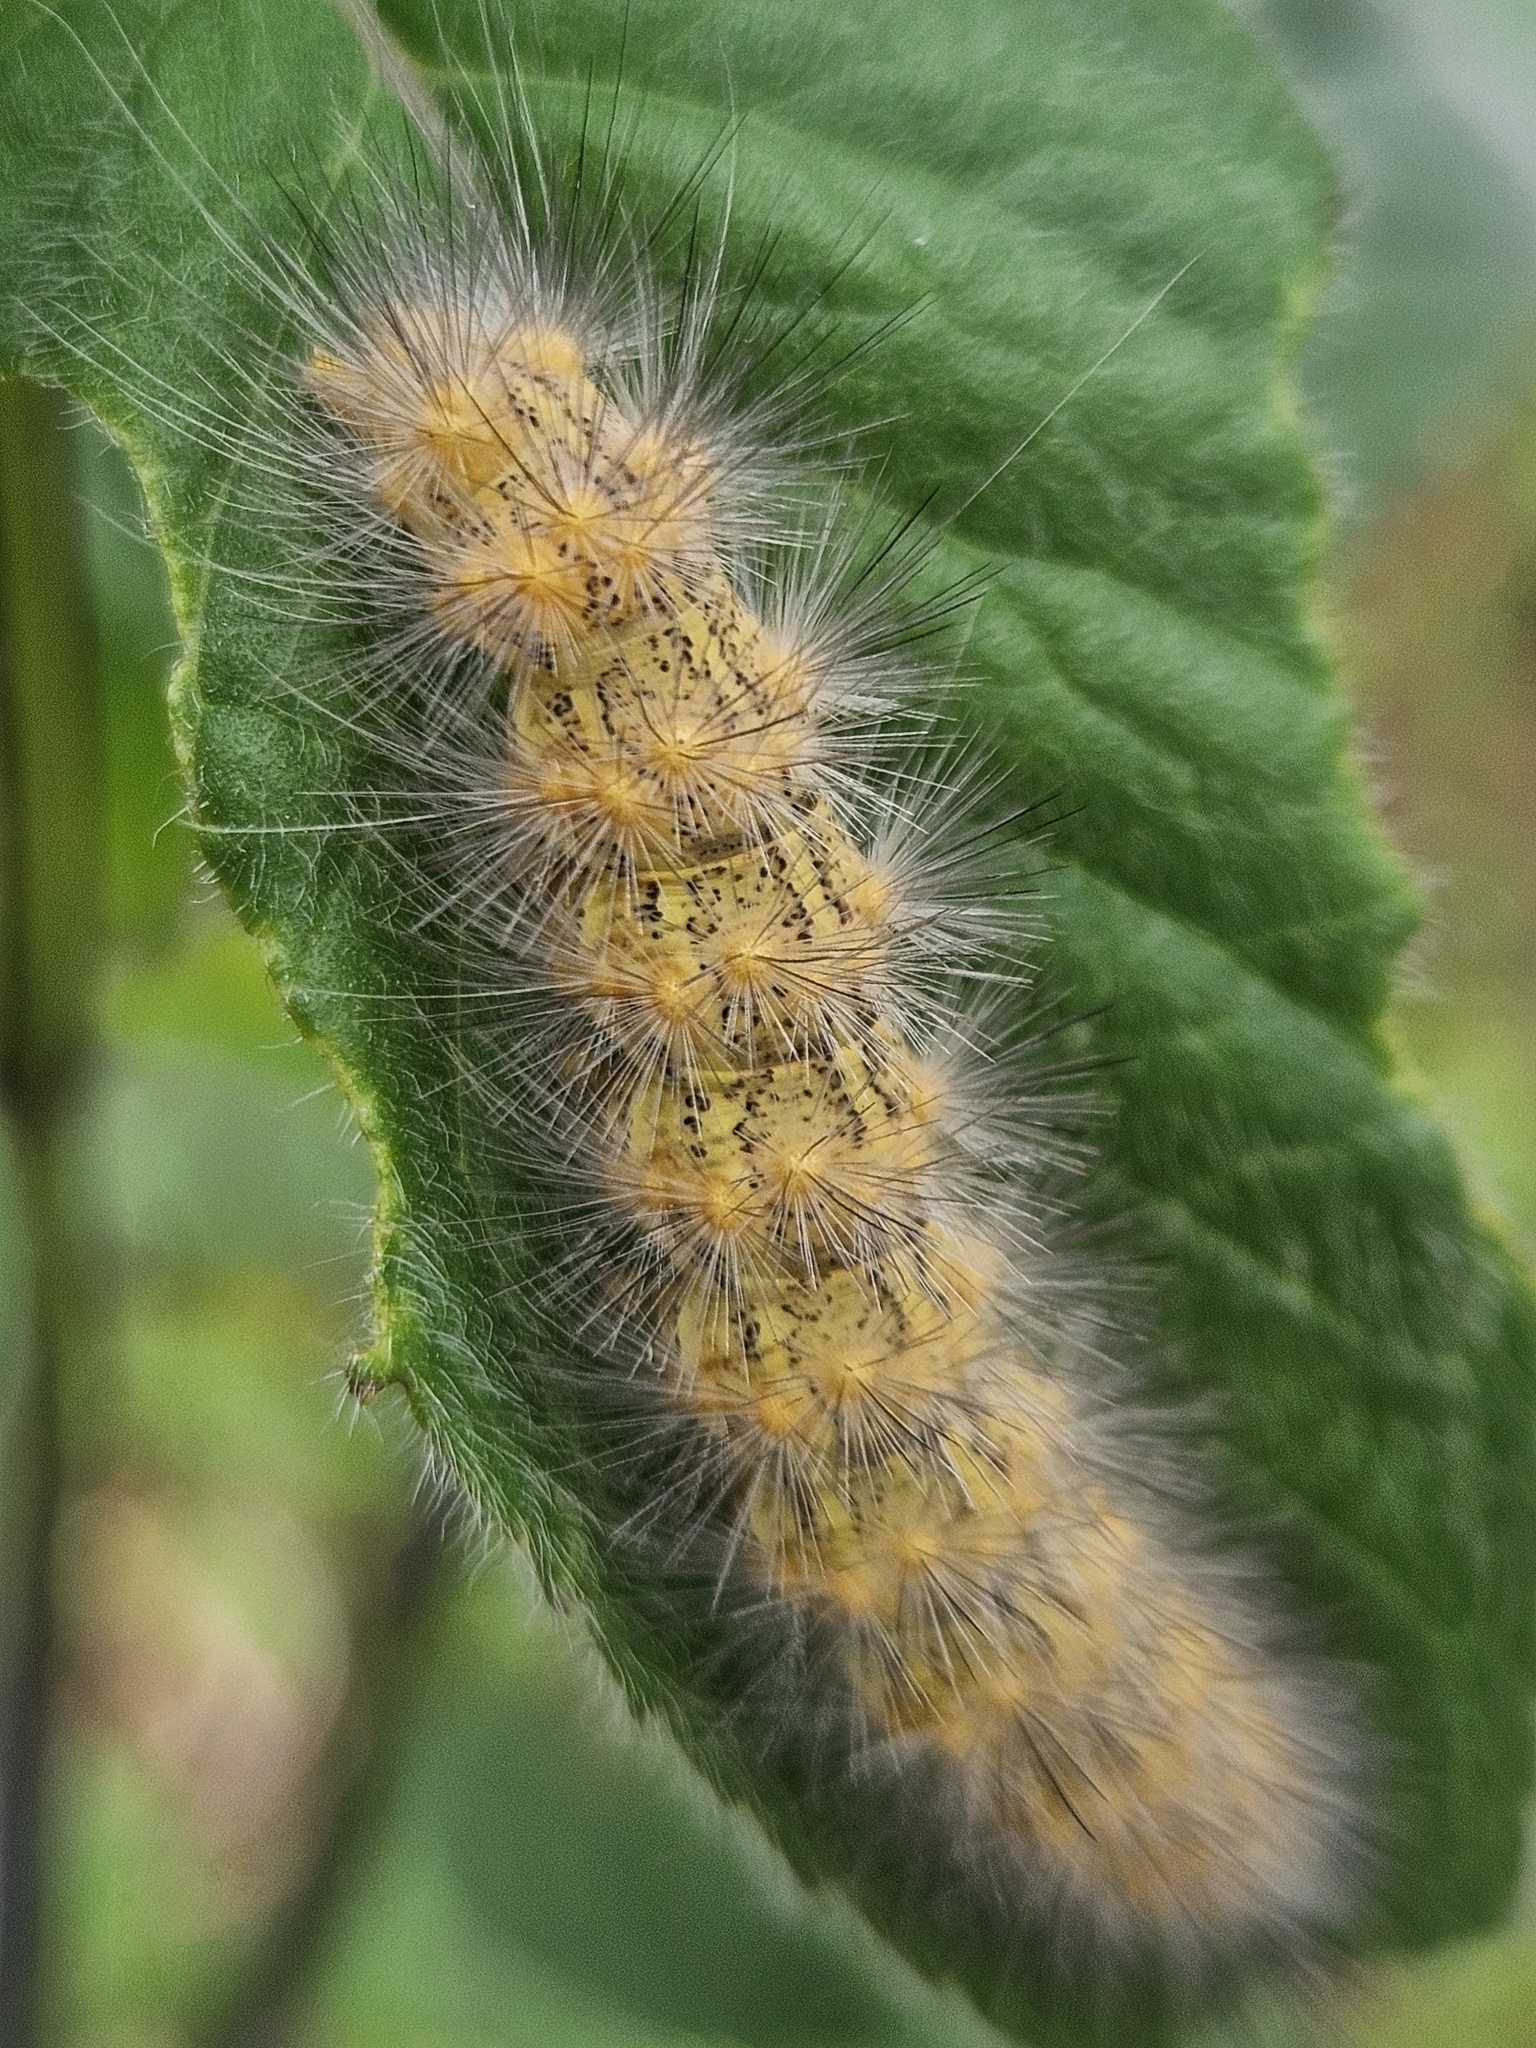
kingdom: Animalia
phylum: Arthropoda
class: Insecta
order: Lepidoptera
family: Erebidae
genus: Estigmene
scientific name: Estigmene acrea
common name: Salt marsh moth
